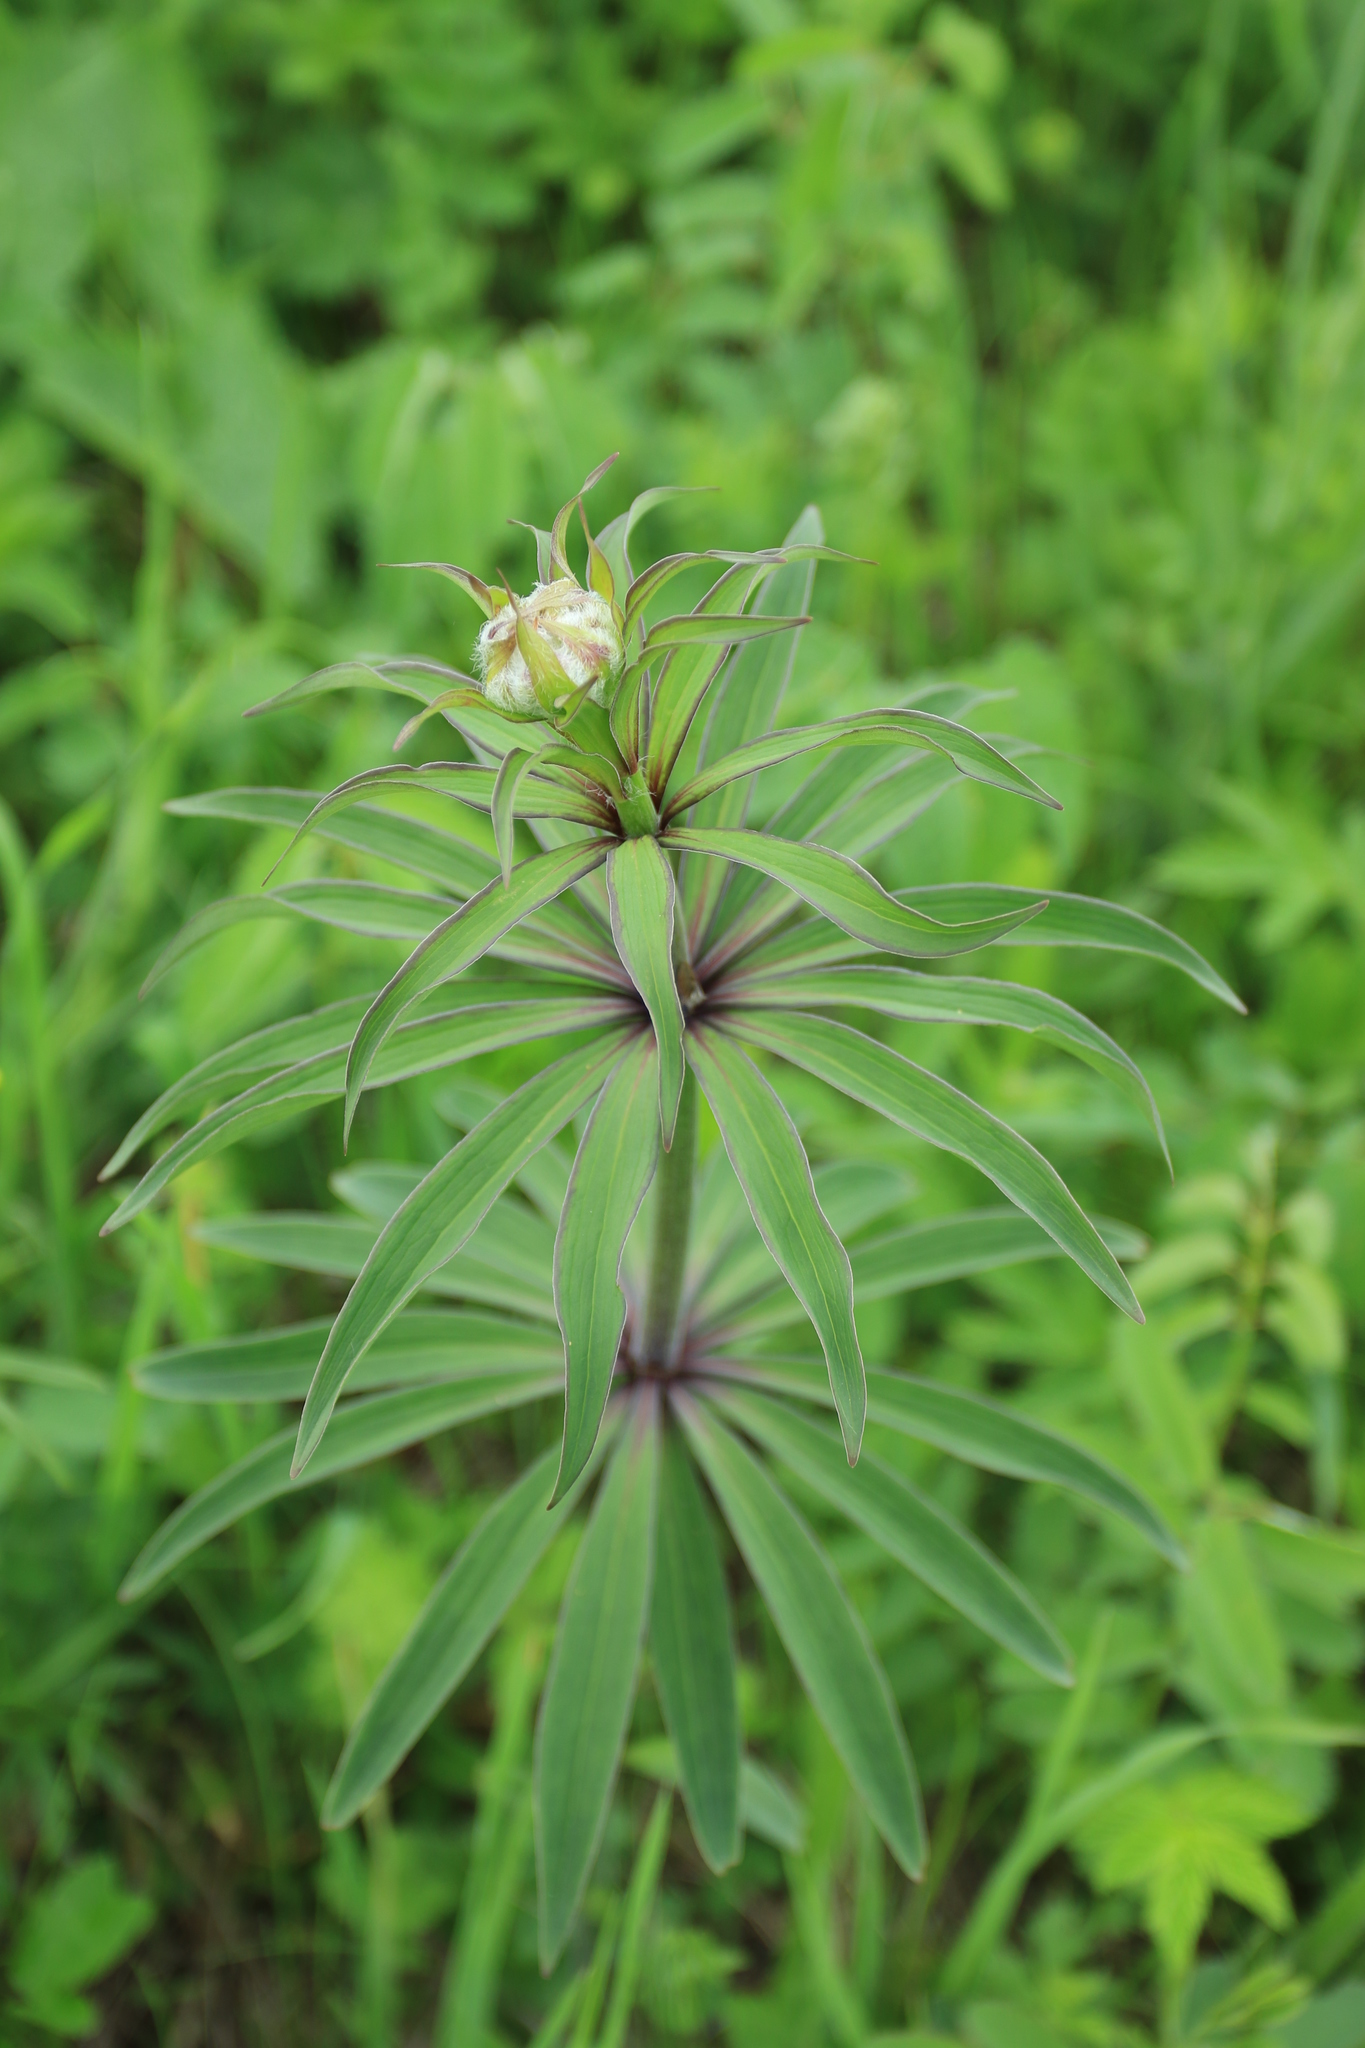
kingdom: Plantae
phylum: Tracheophyta
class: Liliopsida
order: Liliales
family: Liliaceae
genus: Lilium
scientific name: Lilium martagon
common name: Martagon lily
